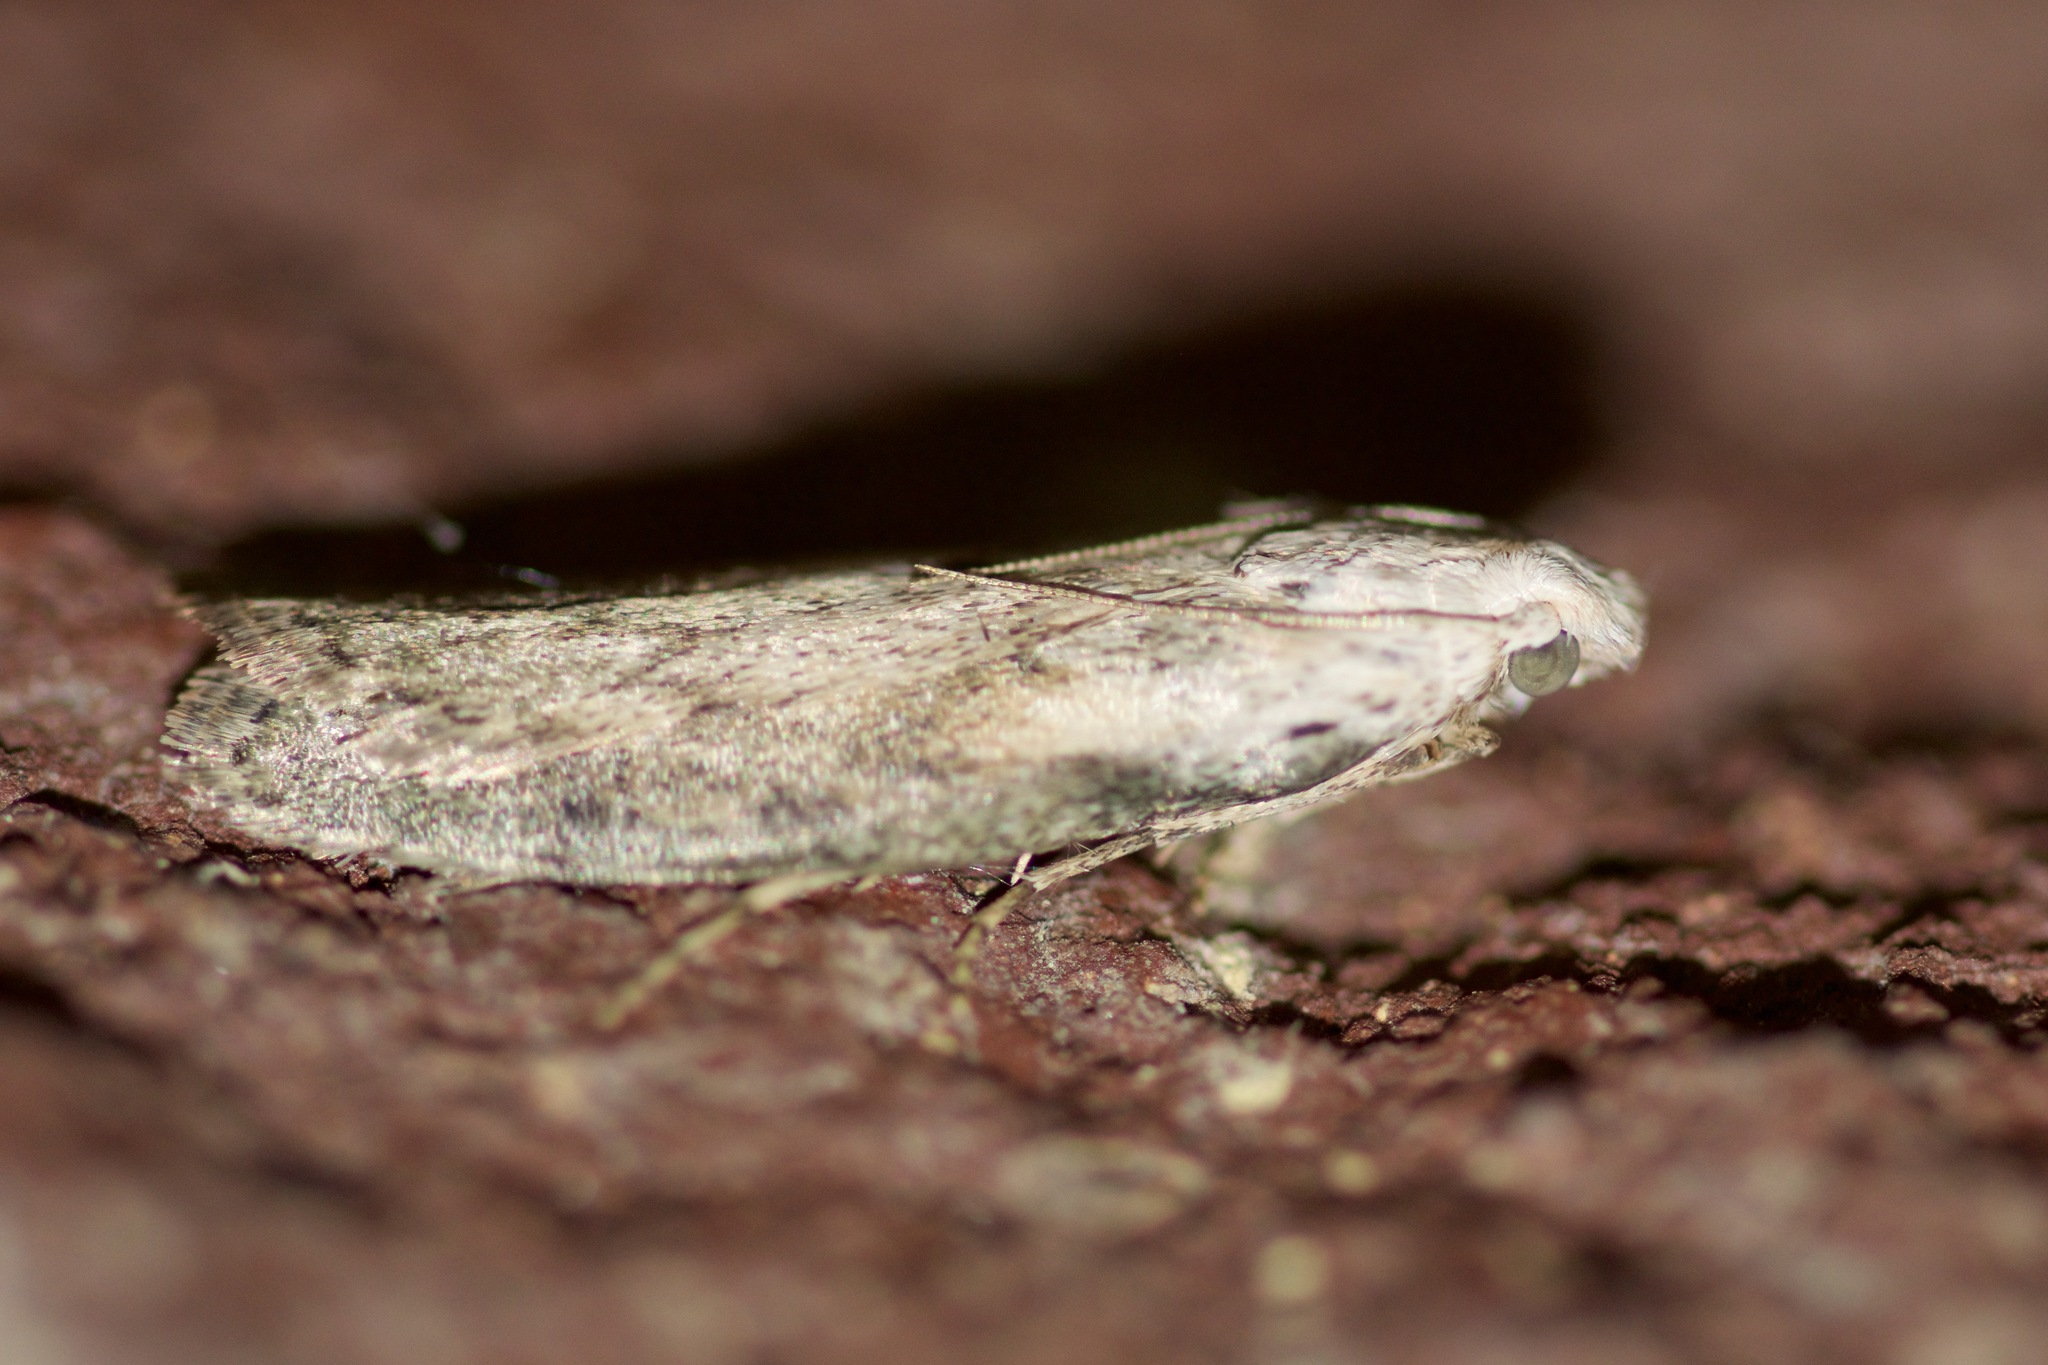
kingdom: Animalia
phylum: Arthropoda
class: Insecta
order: Lepidoptera
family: Pyralidae
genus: Aphomia
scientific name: Aphomia sociella
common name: Bee moth
